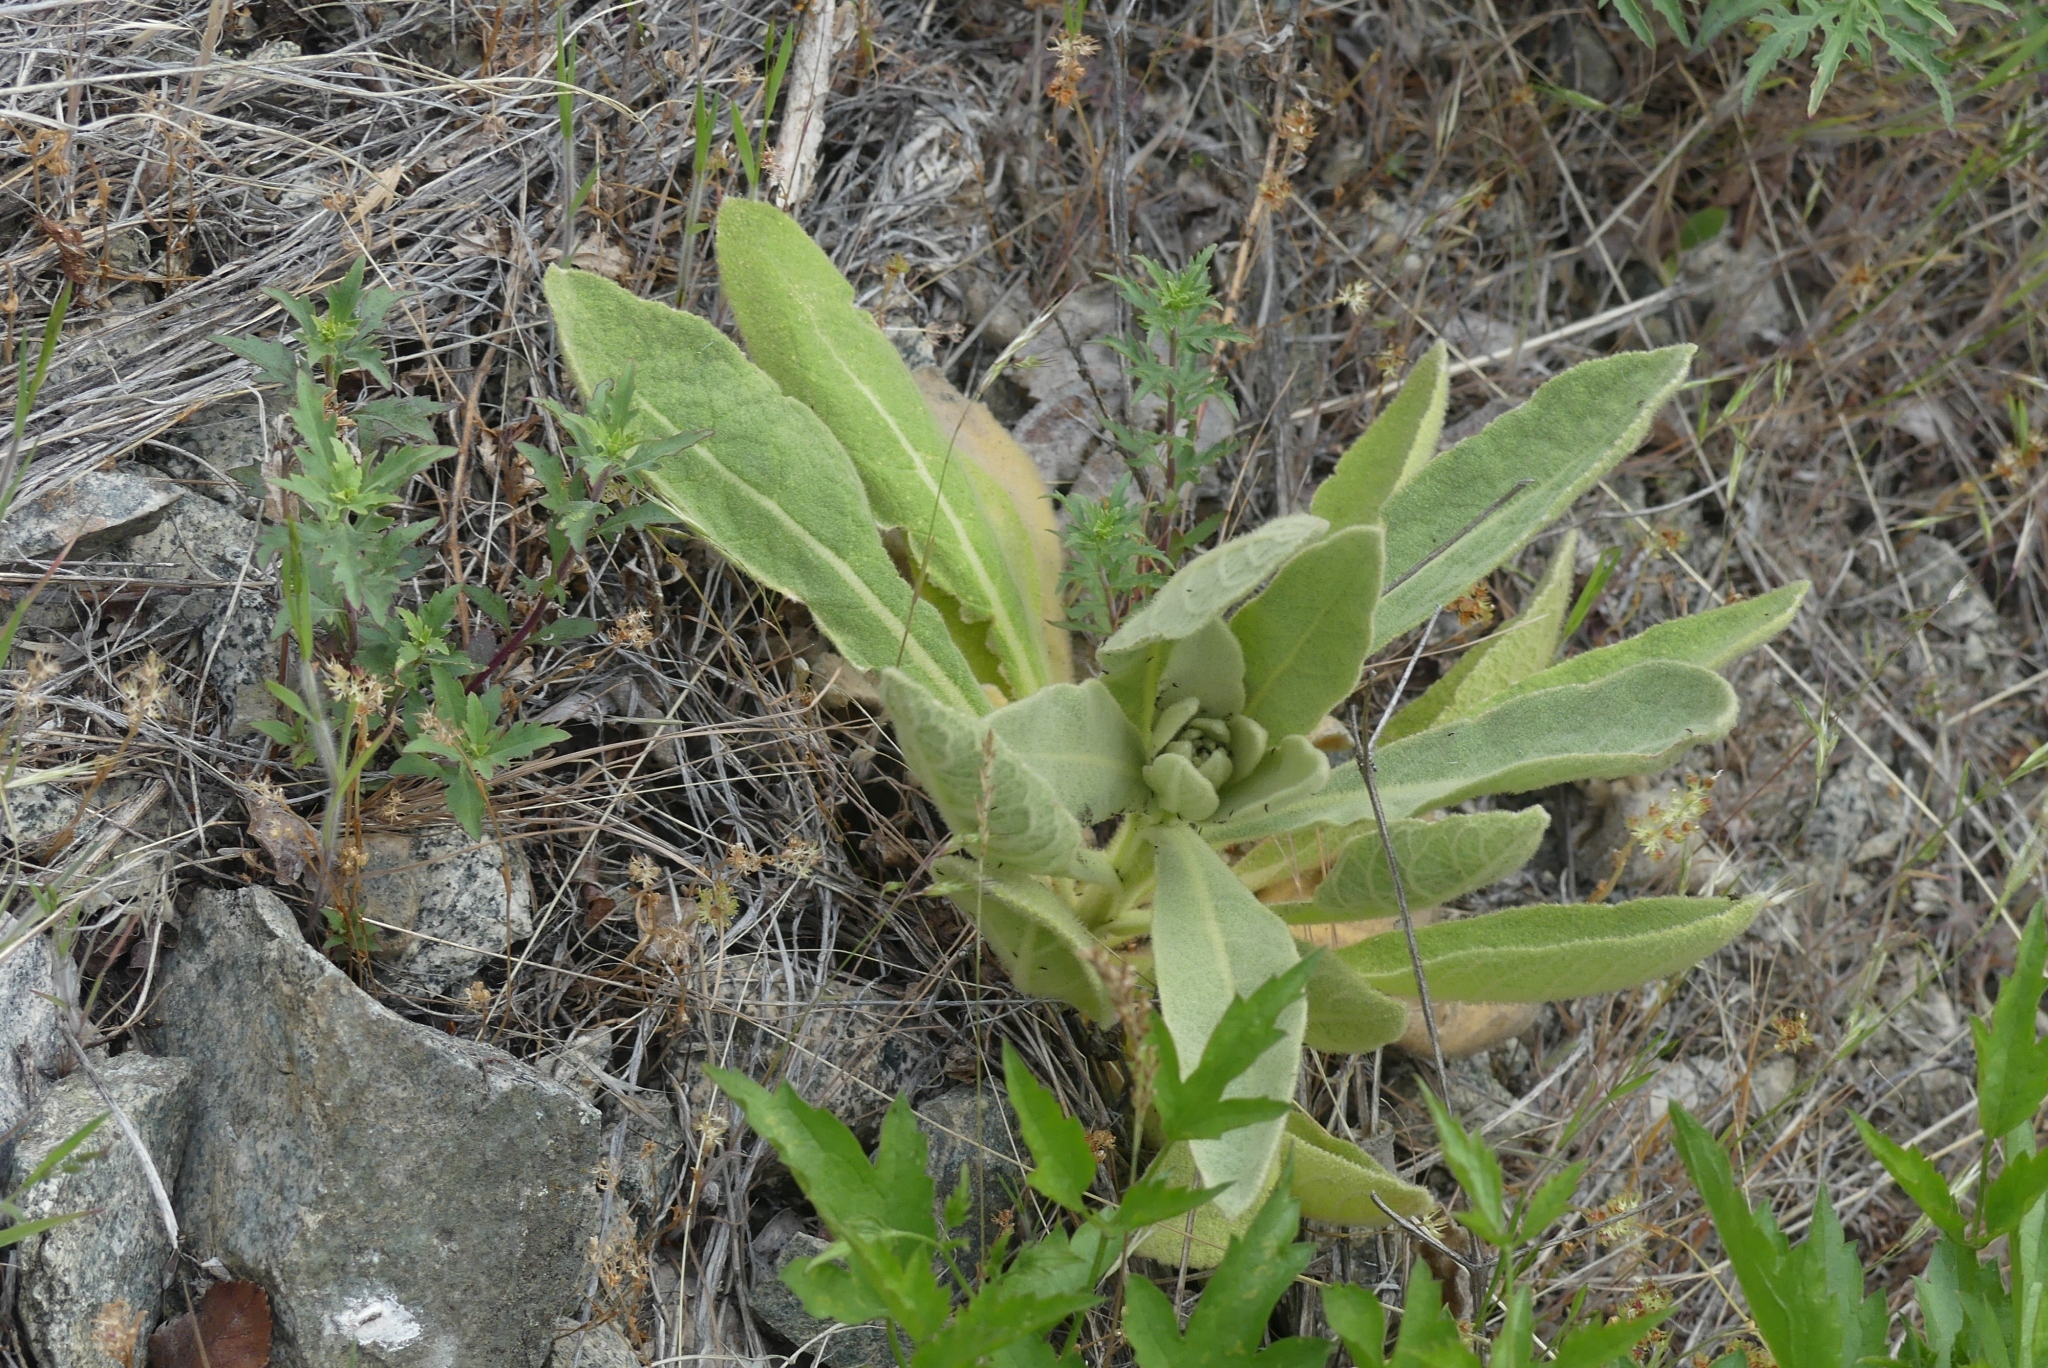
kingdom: Plantae
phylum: Tracheophyta
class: Magnoliopsida
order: Lamiales
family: Scrophulariaceae
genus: Verbascum
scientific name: Verbascum thapsus
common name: Common mullein
